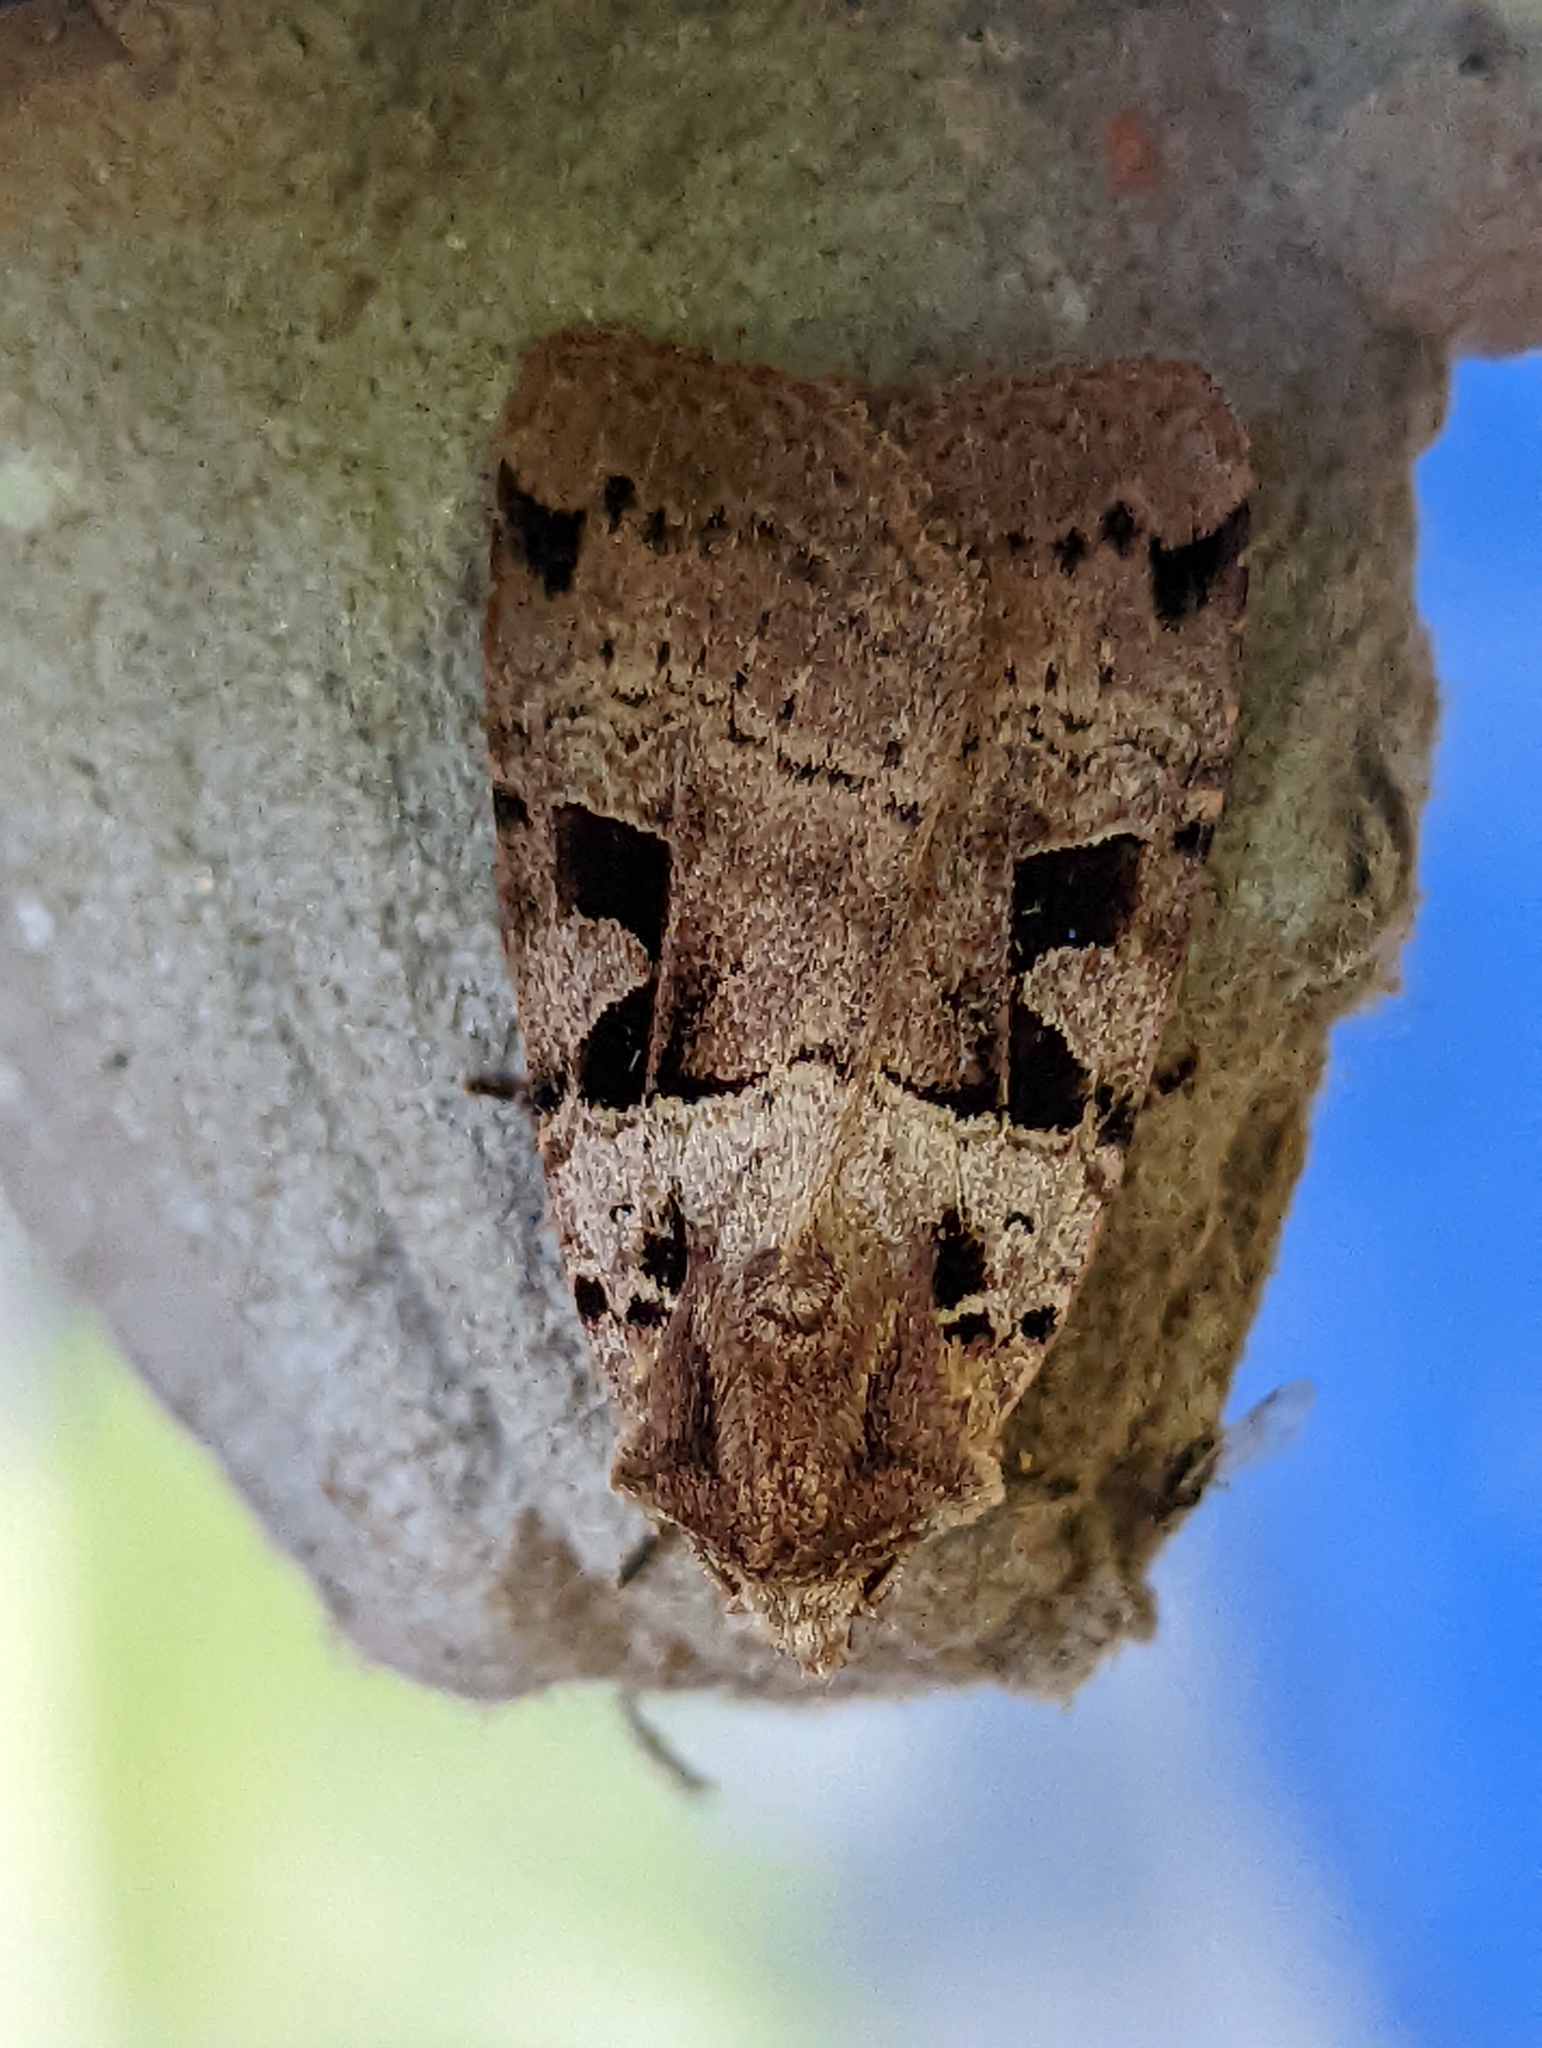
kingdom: Animalia
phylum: Arthropoda
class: Insecta
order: Lepidoptera
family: Noctuidae
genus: Xestia
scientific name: Xestia triangulum
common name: Double square-spot
